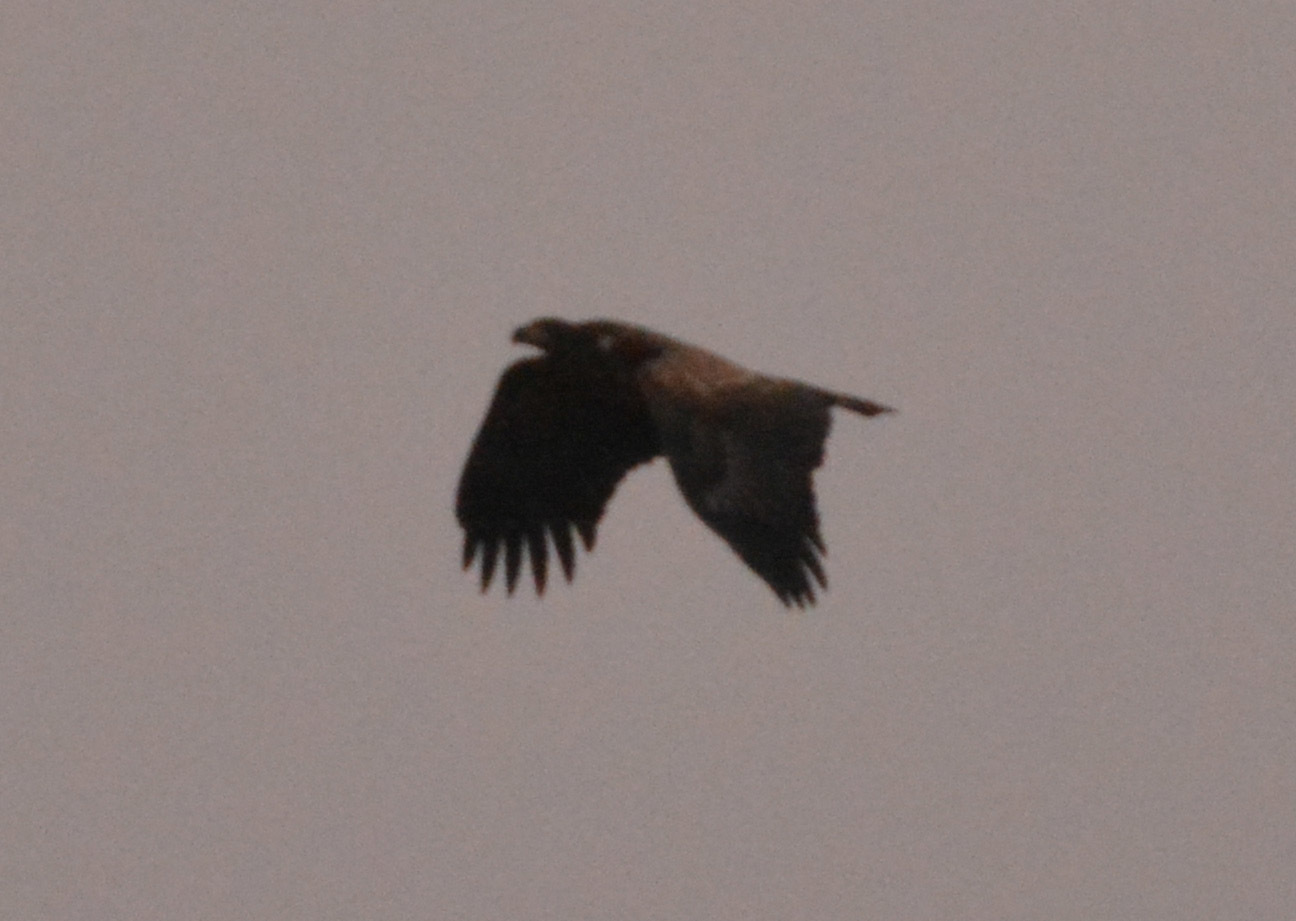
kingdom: Animalia
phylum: Chordata
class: Aves
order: Accipitriformes
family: Accipitridae
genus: Haliaeetus
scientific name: Haliaeetus albicilla
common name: White-tailed eagle
